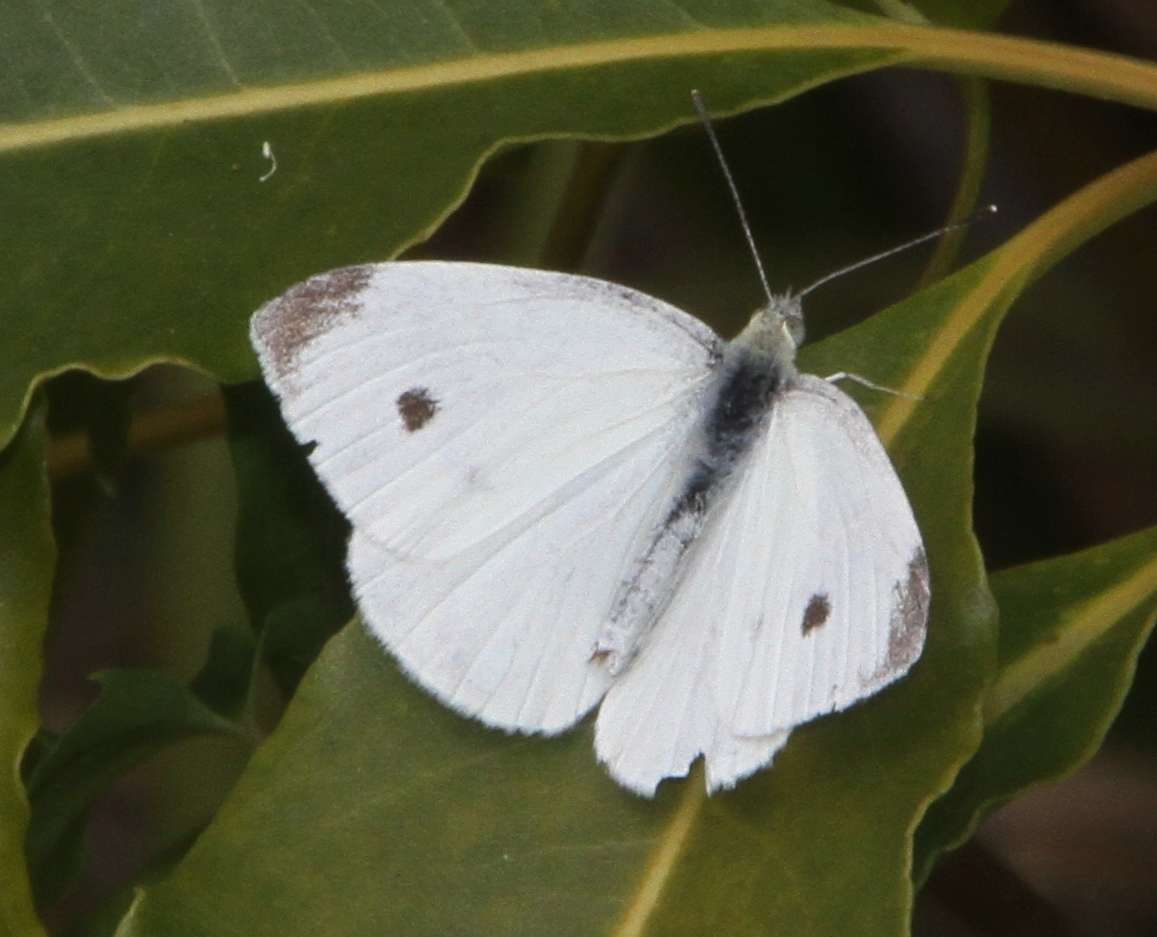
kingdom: Animalia
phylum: Arthropoda
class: Insecta
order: Lepidoptera
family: Pieridae
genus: Pieris
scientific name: Pieris rapae
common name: Small white
